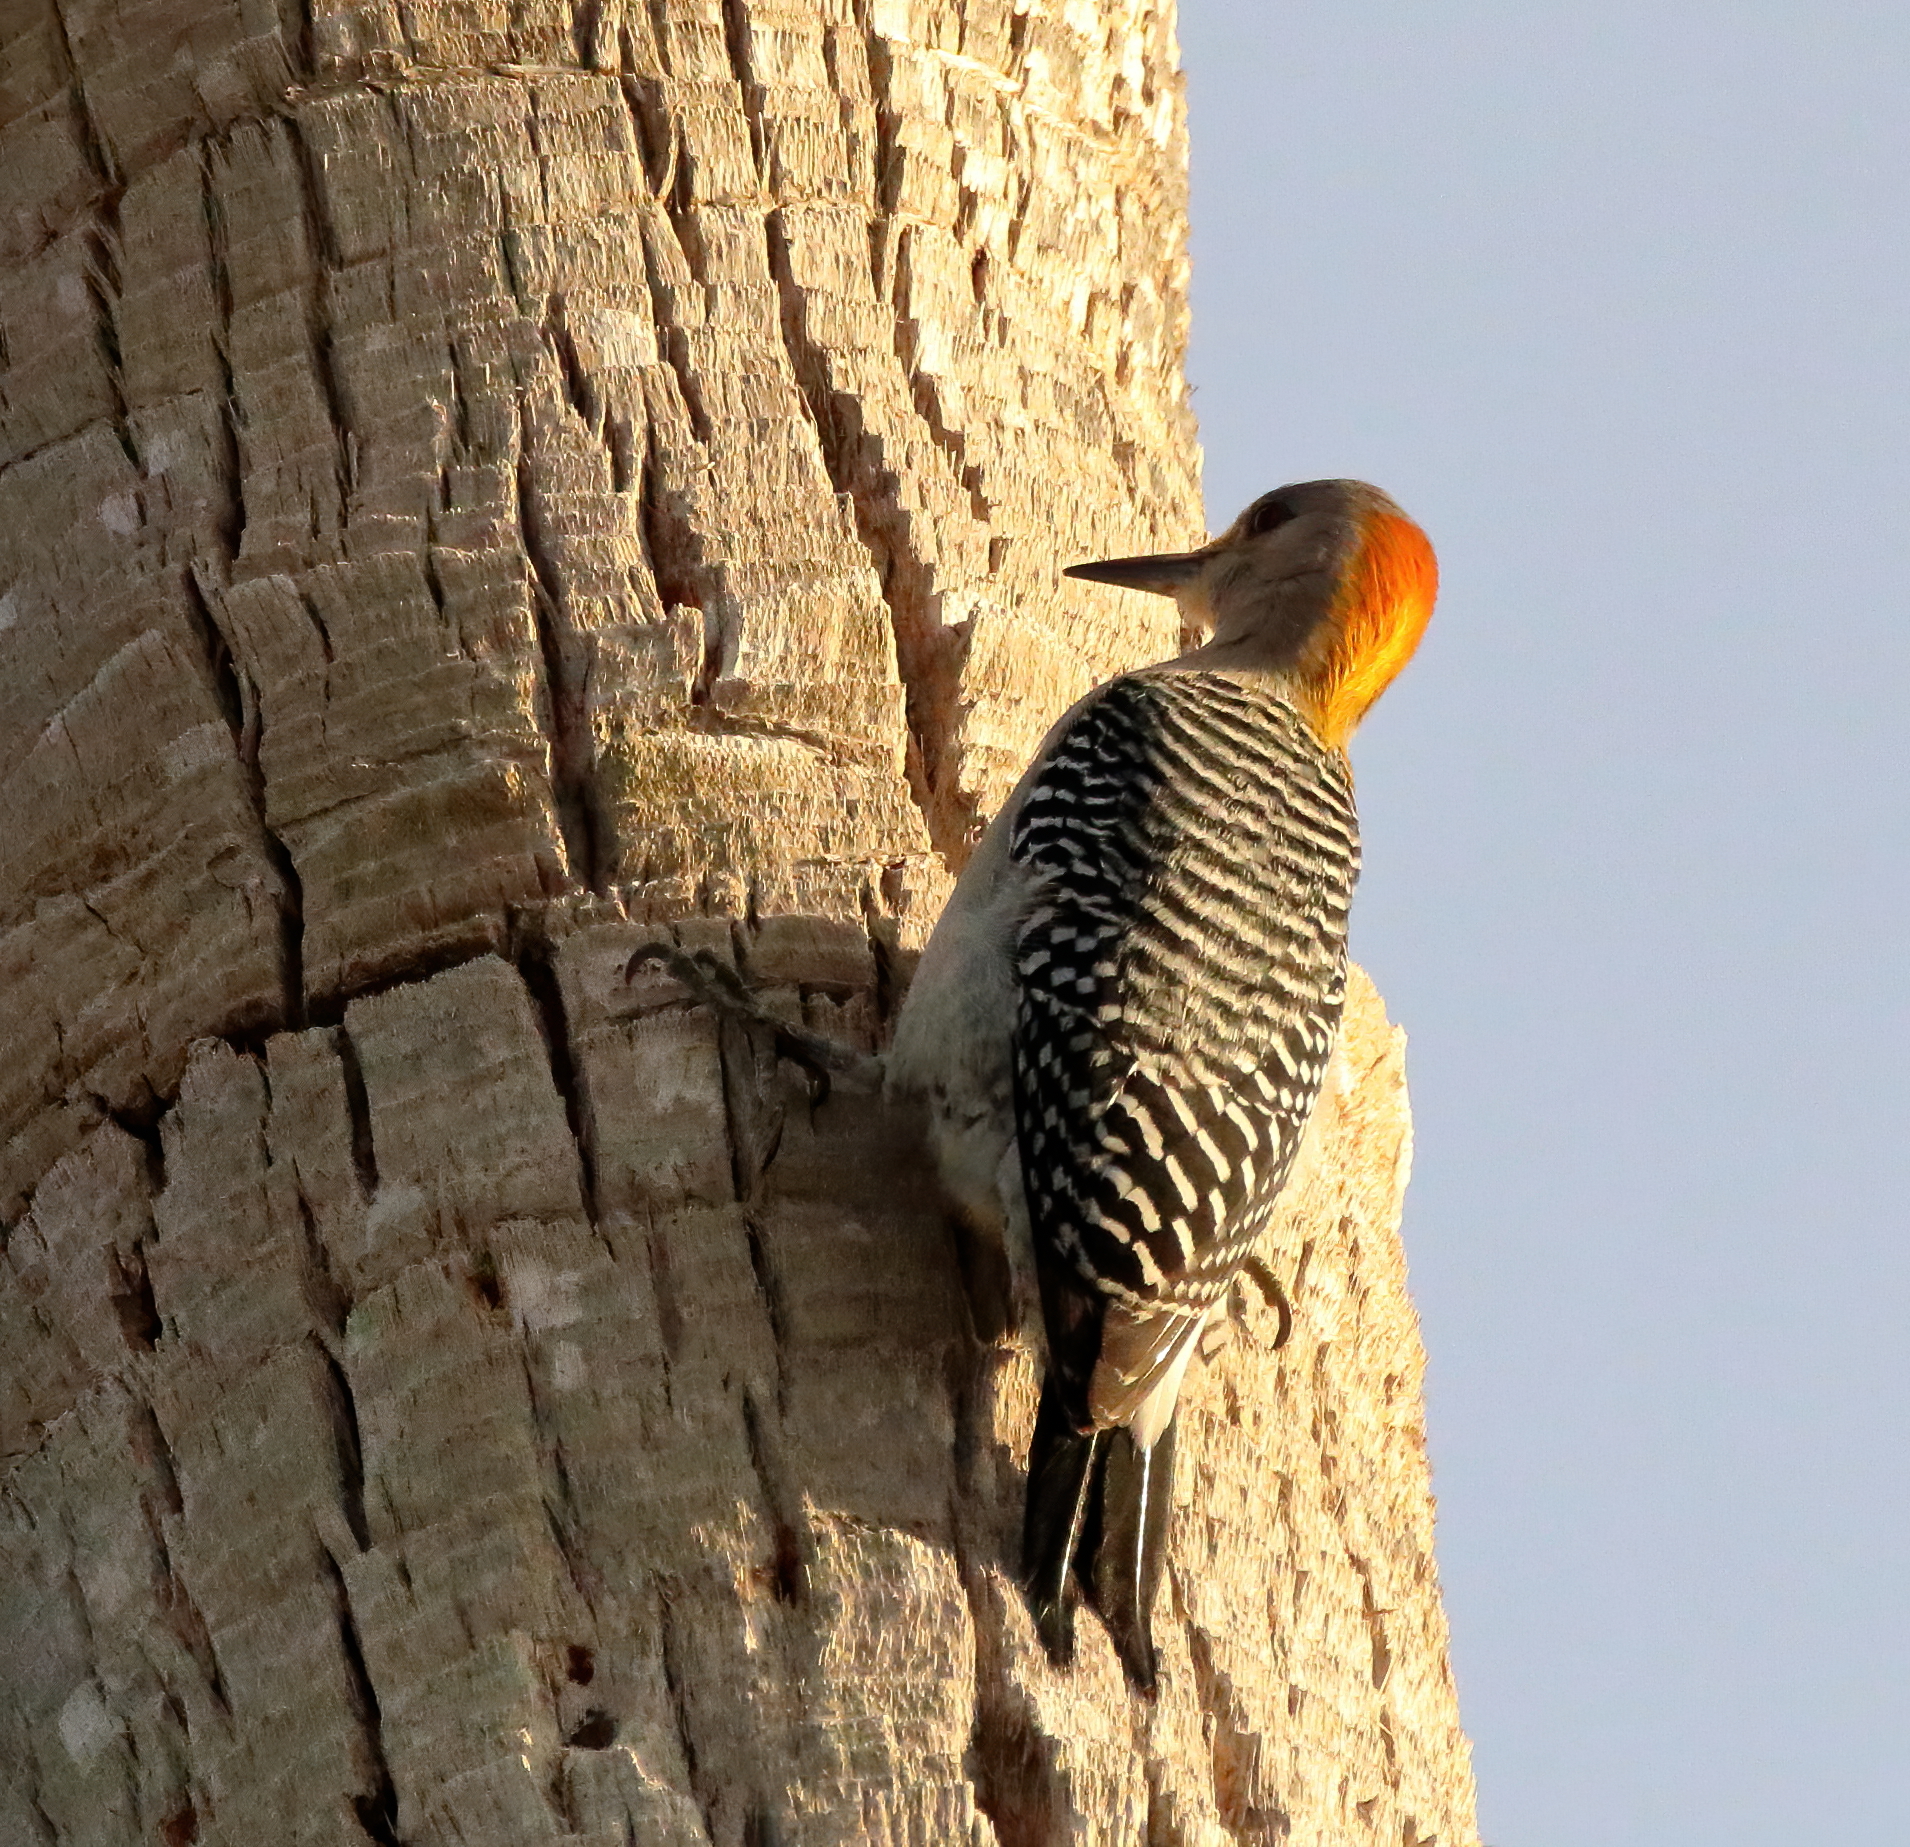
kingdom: Animalia
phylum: Chordata
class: Aves
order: Piciformes
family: Picidae
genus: Melanerpes
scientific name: Melanerpes aurifrons
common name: Golden-fronted woodpecker
